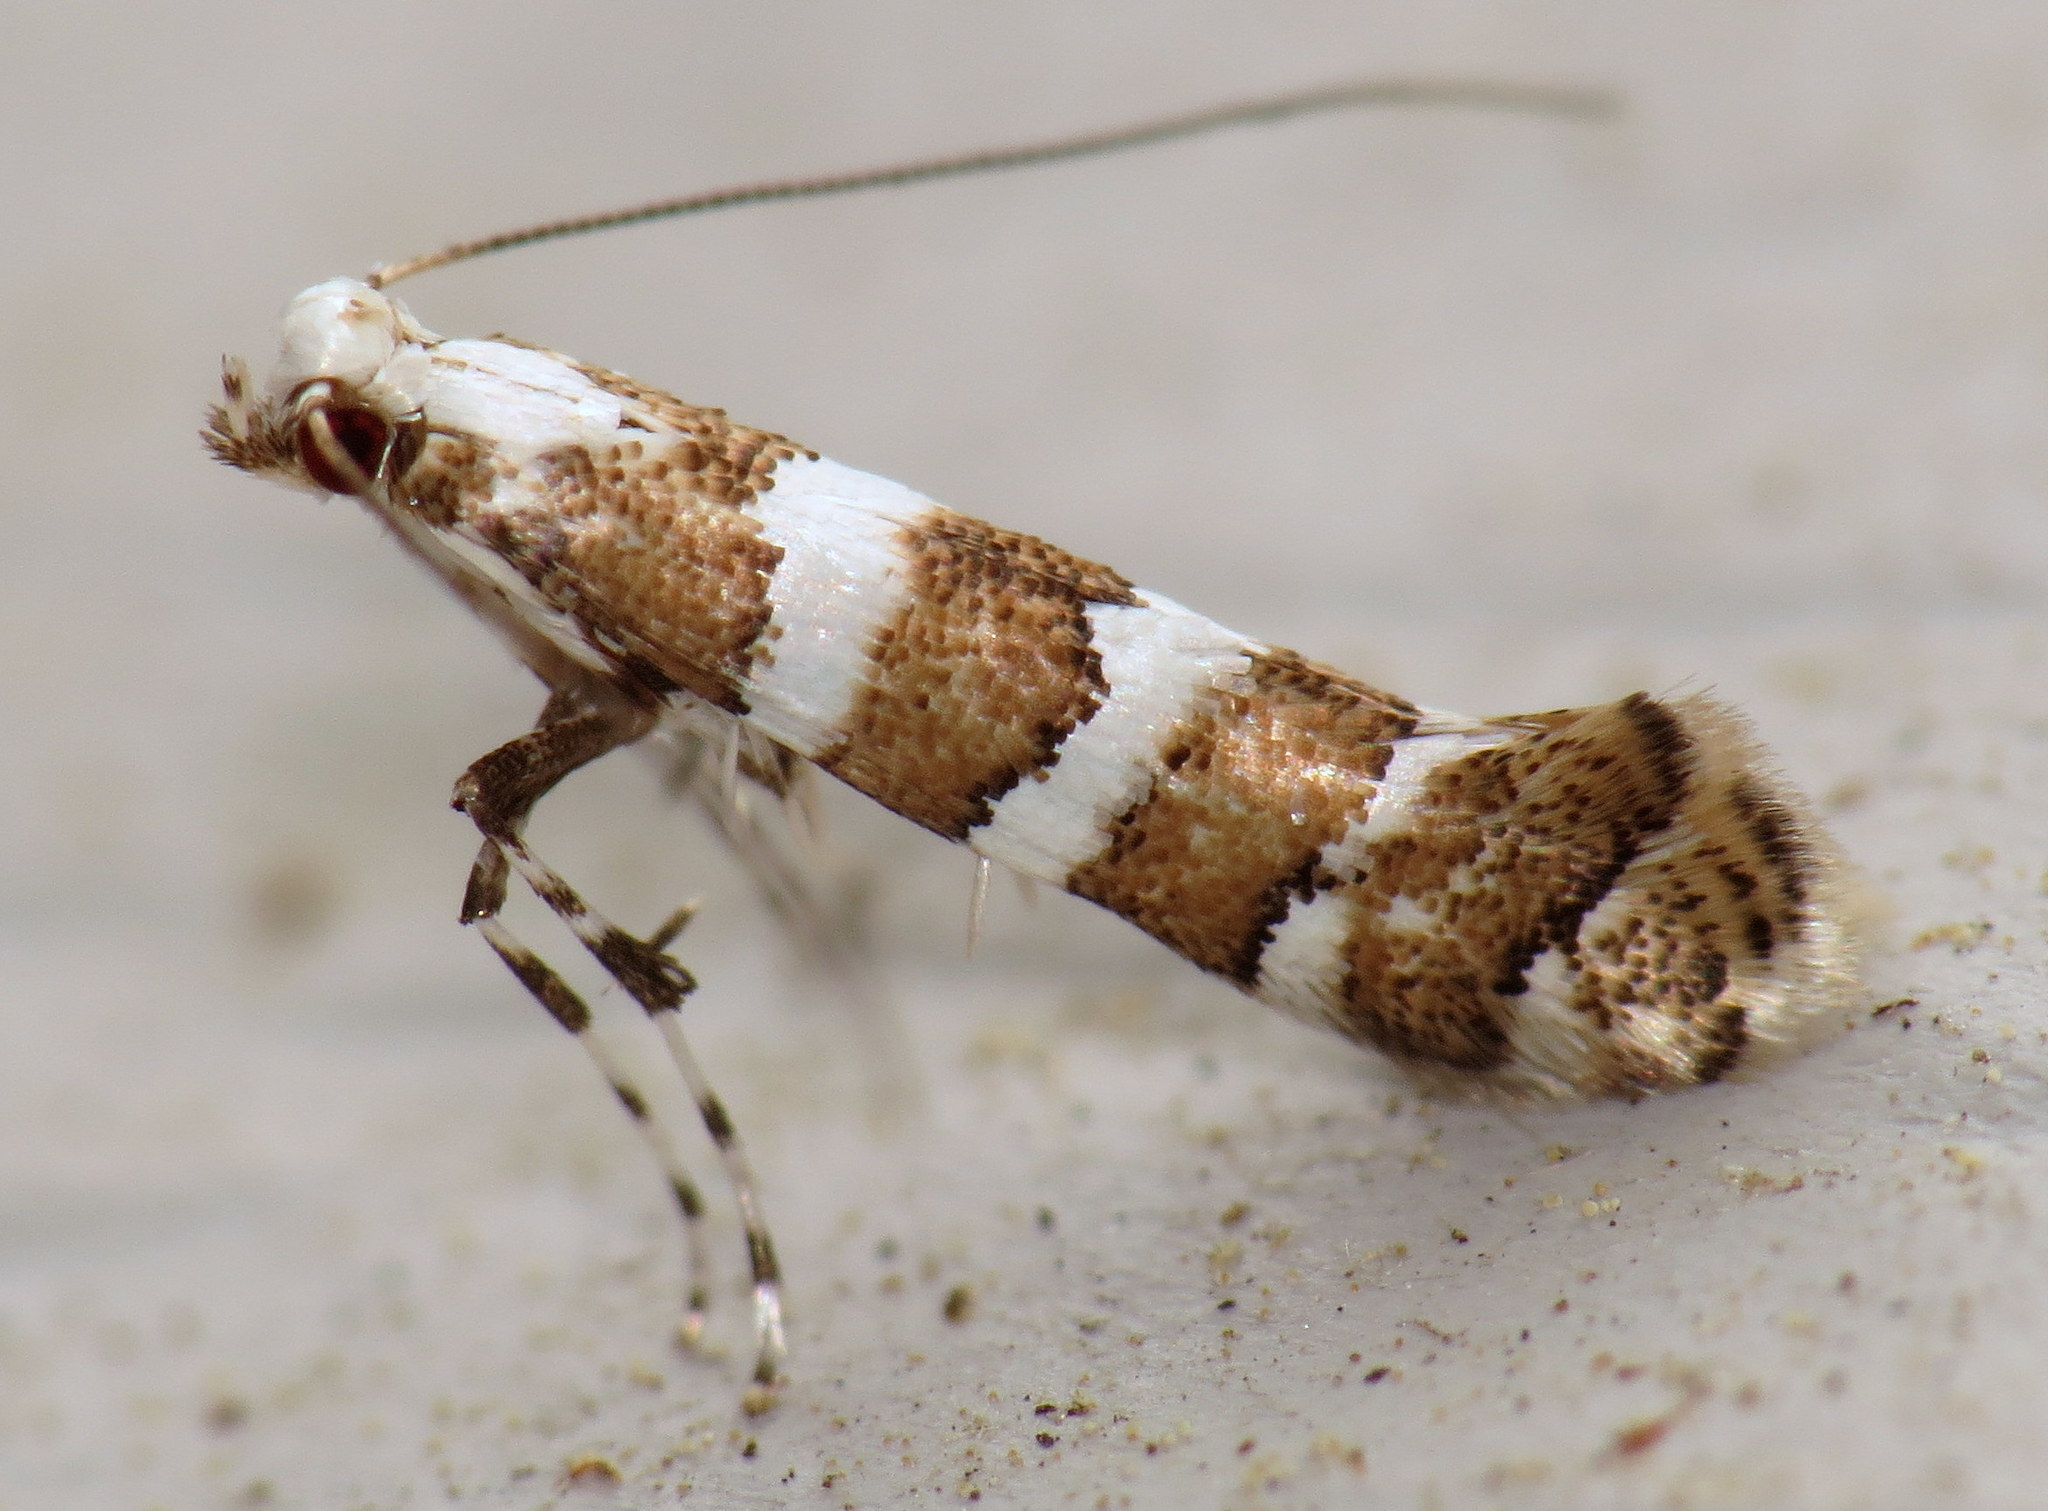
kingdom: Animalia
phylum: Arthropoda
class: Insecta
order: Lepidoptera
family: Gracillariidae
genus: Marmara
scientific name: Marmara fasciella
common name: White pine barkminer moth
